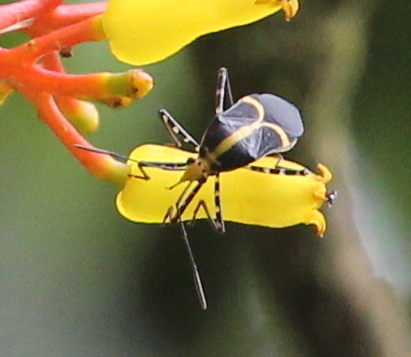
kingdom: Animalia
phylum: Arthropoda
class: Insecta
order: Hemiptera
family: Coreidae
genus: Hypselonotus
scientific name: Hypselonotus linea
